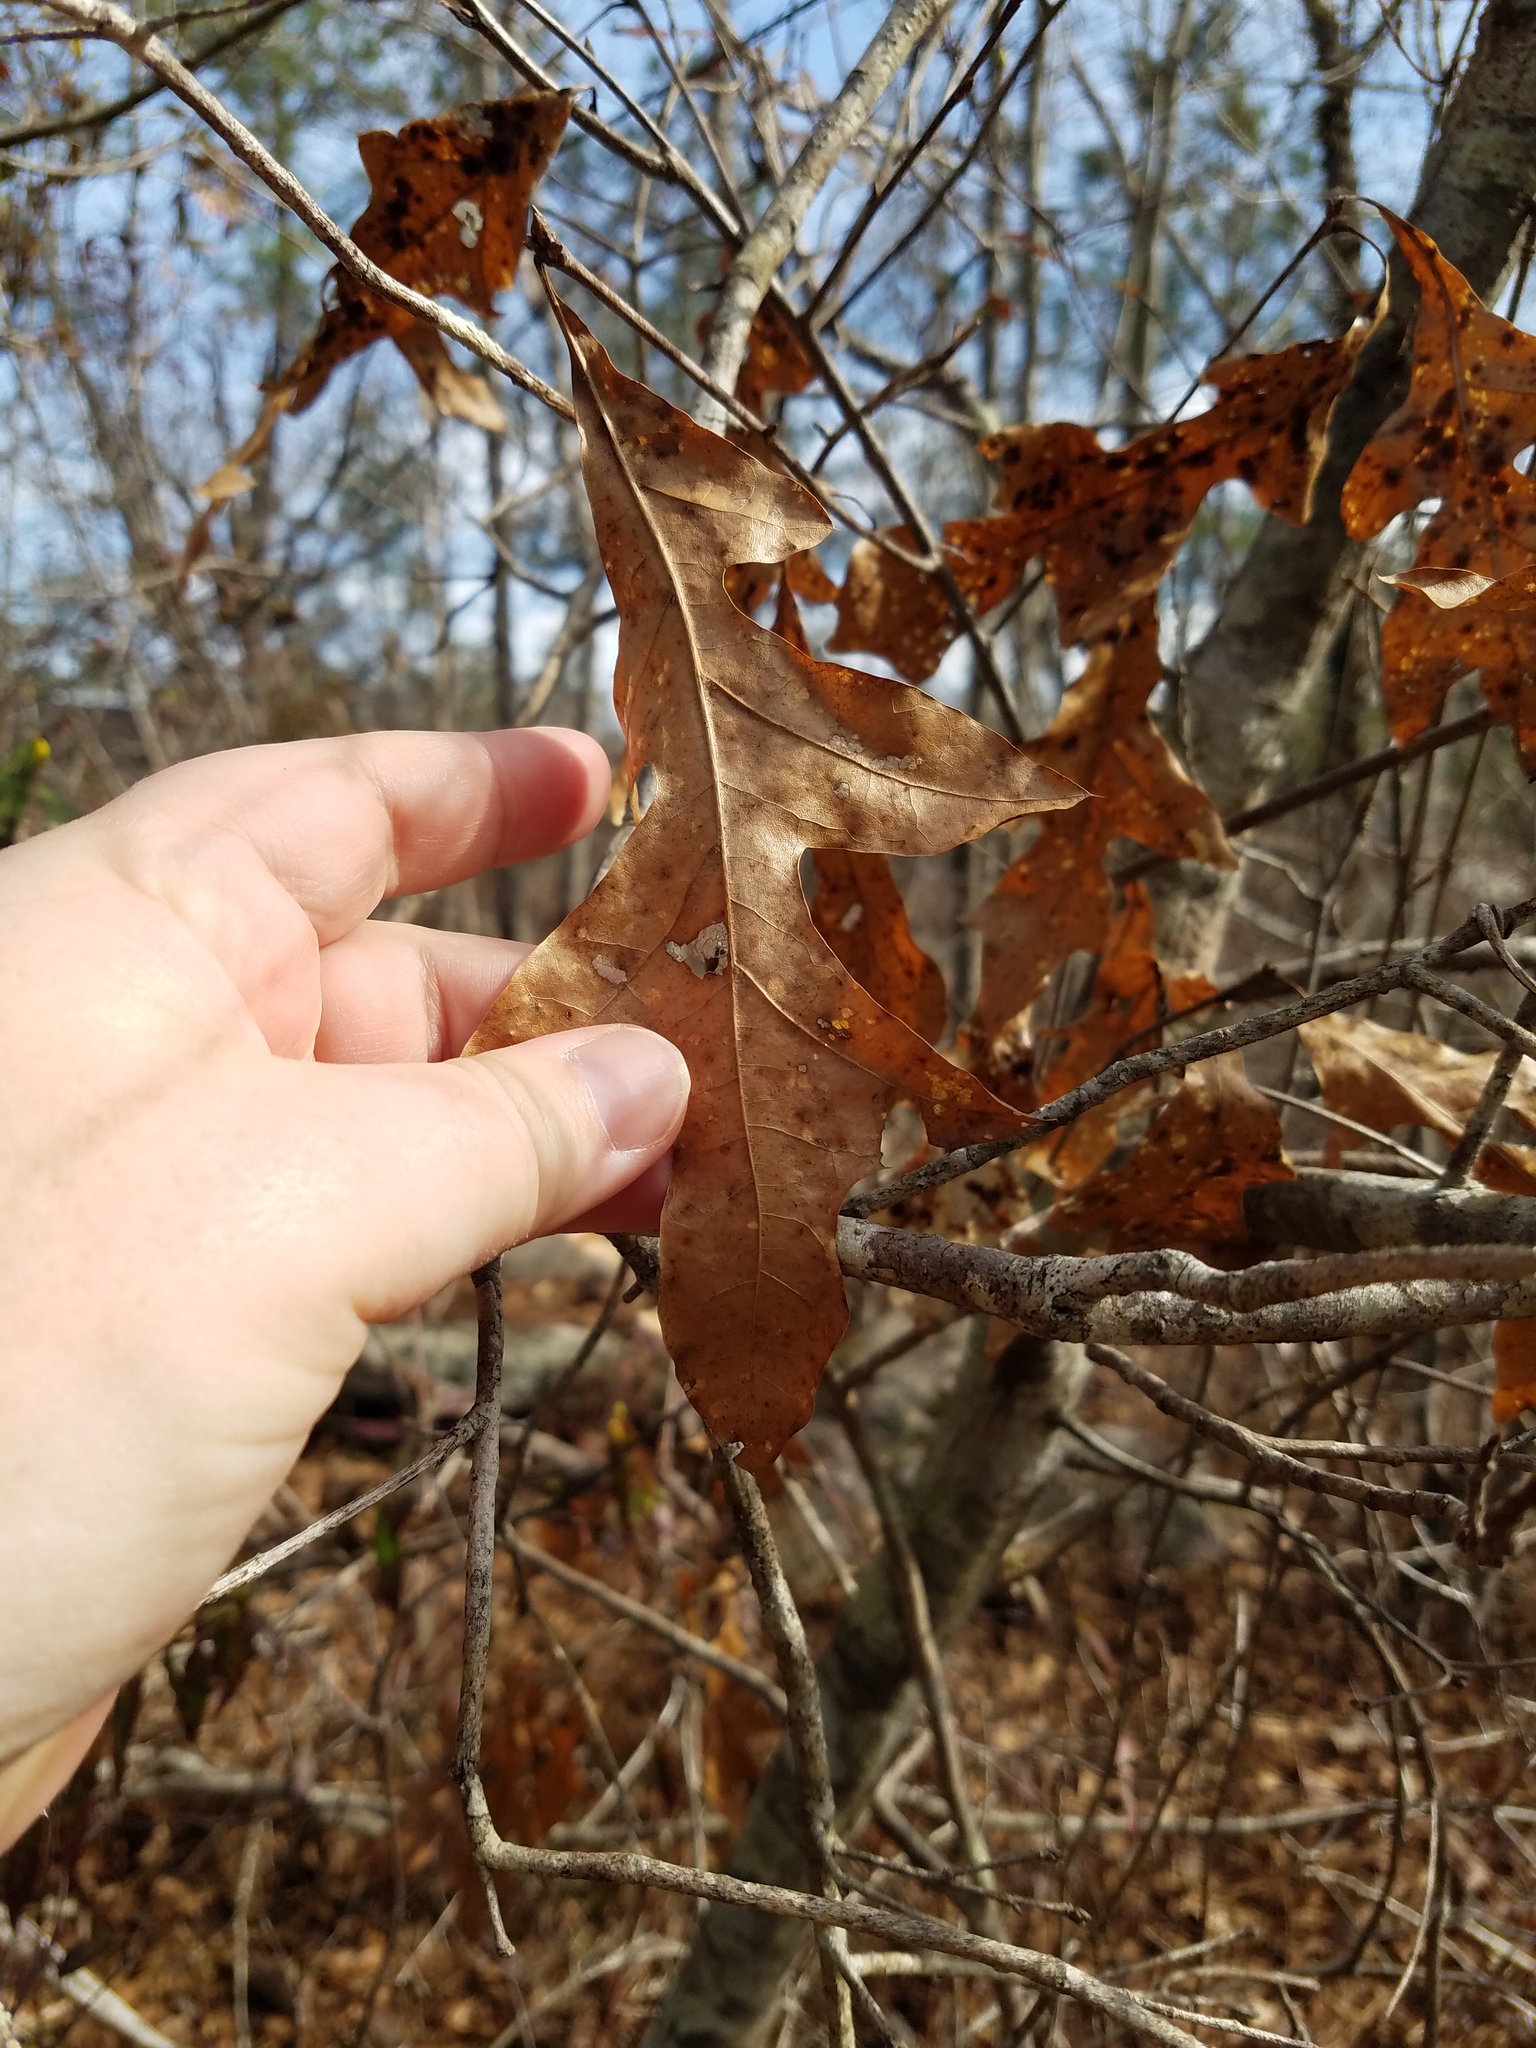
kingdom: Plantae
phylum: Tracheophyta
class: Magnoliopsida
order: Fagales
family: Fagaceae
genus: Quercus
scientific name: Quercus georgiana
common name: Georgia oak
